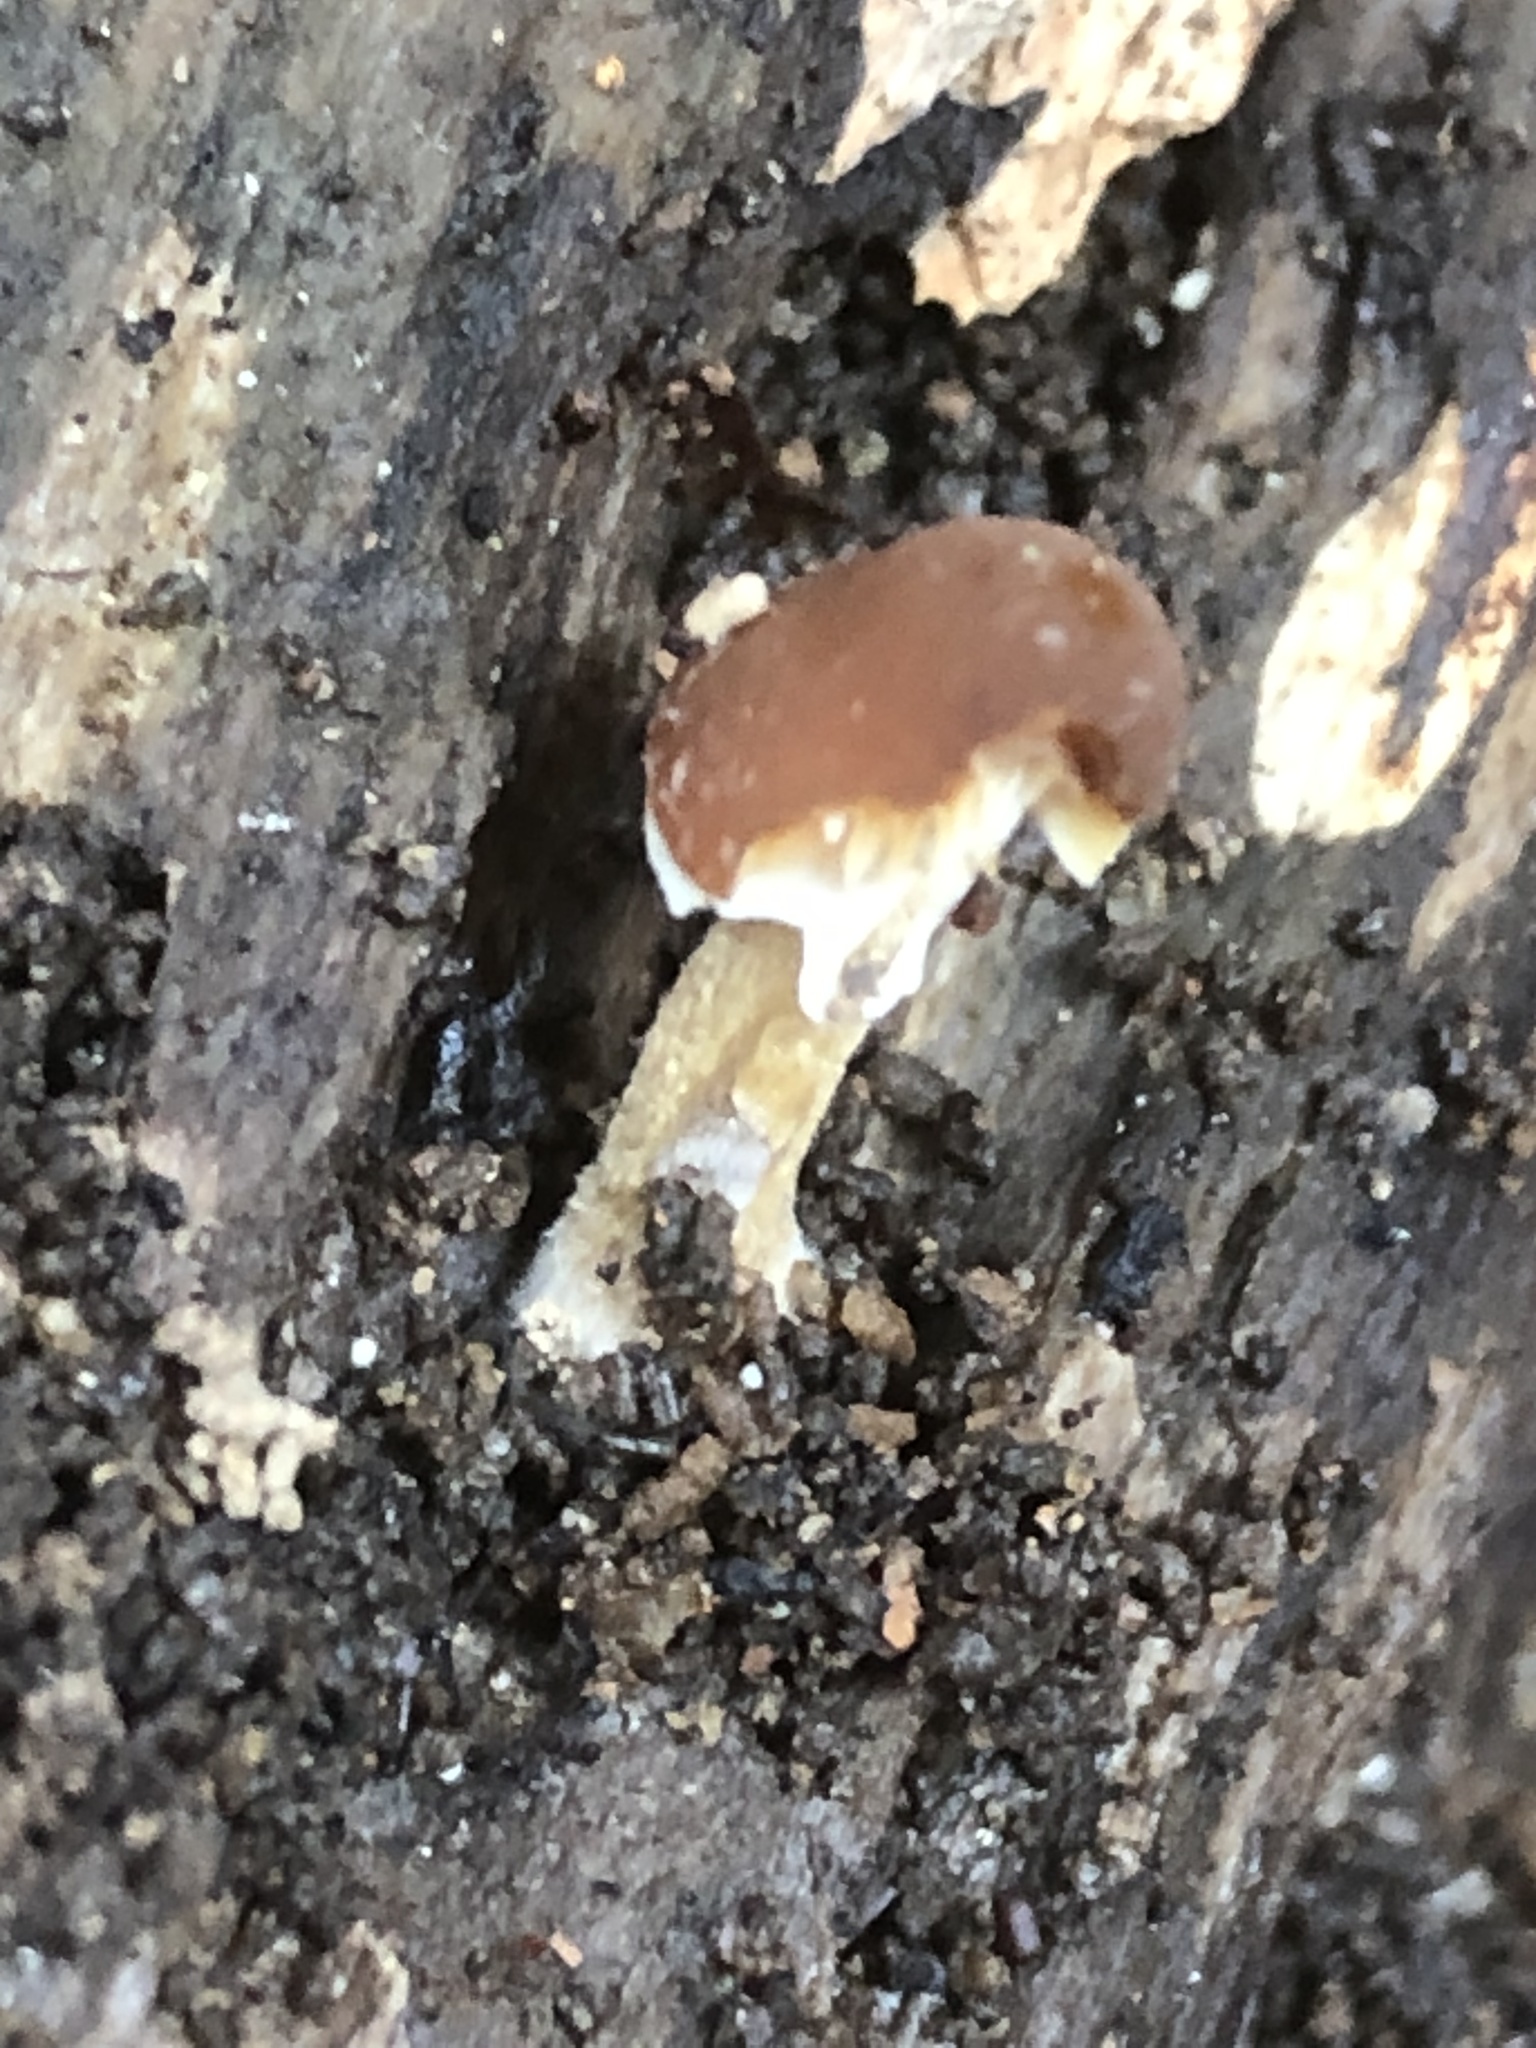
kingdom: Fungi
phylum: Basidiomycota
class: Agaricomycetes
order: Agaricales
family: Bolbitiaceae
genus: Conocybe
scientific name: Conocybe rugosa
